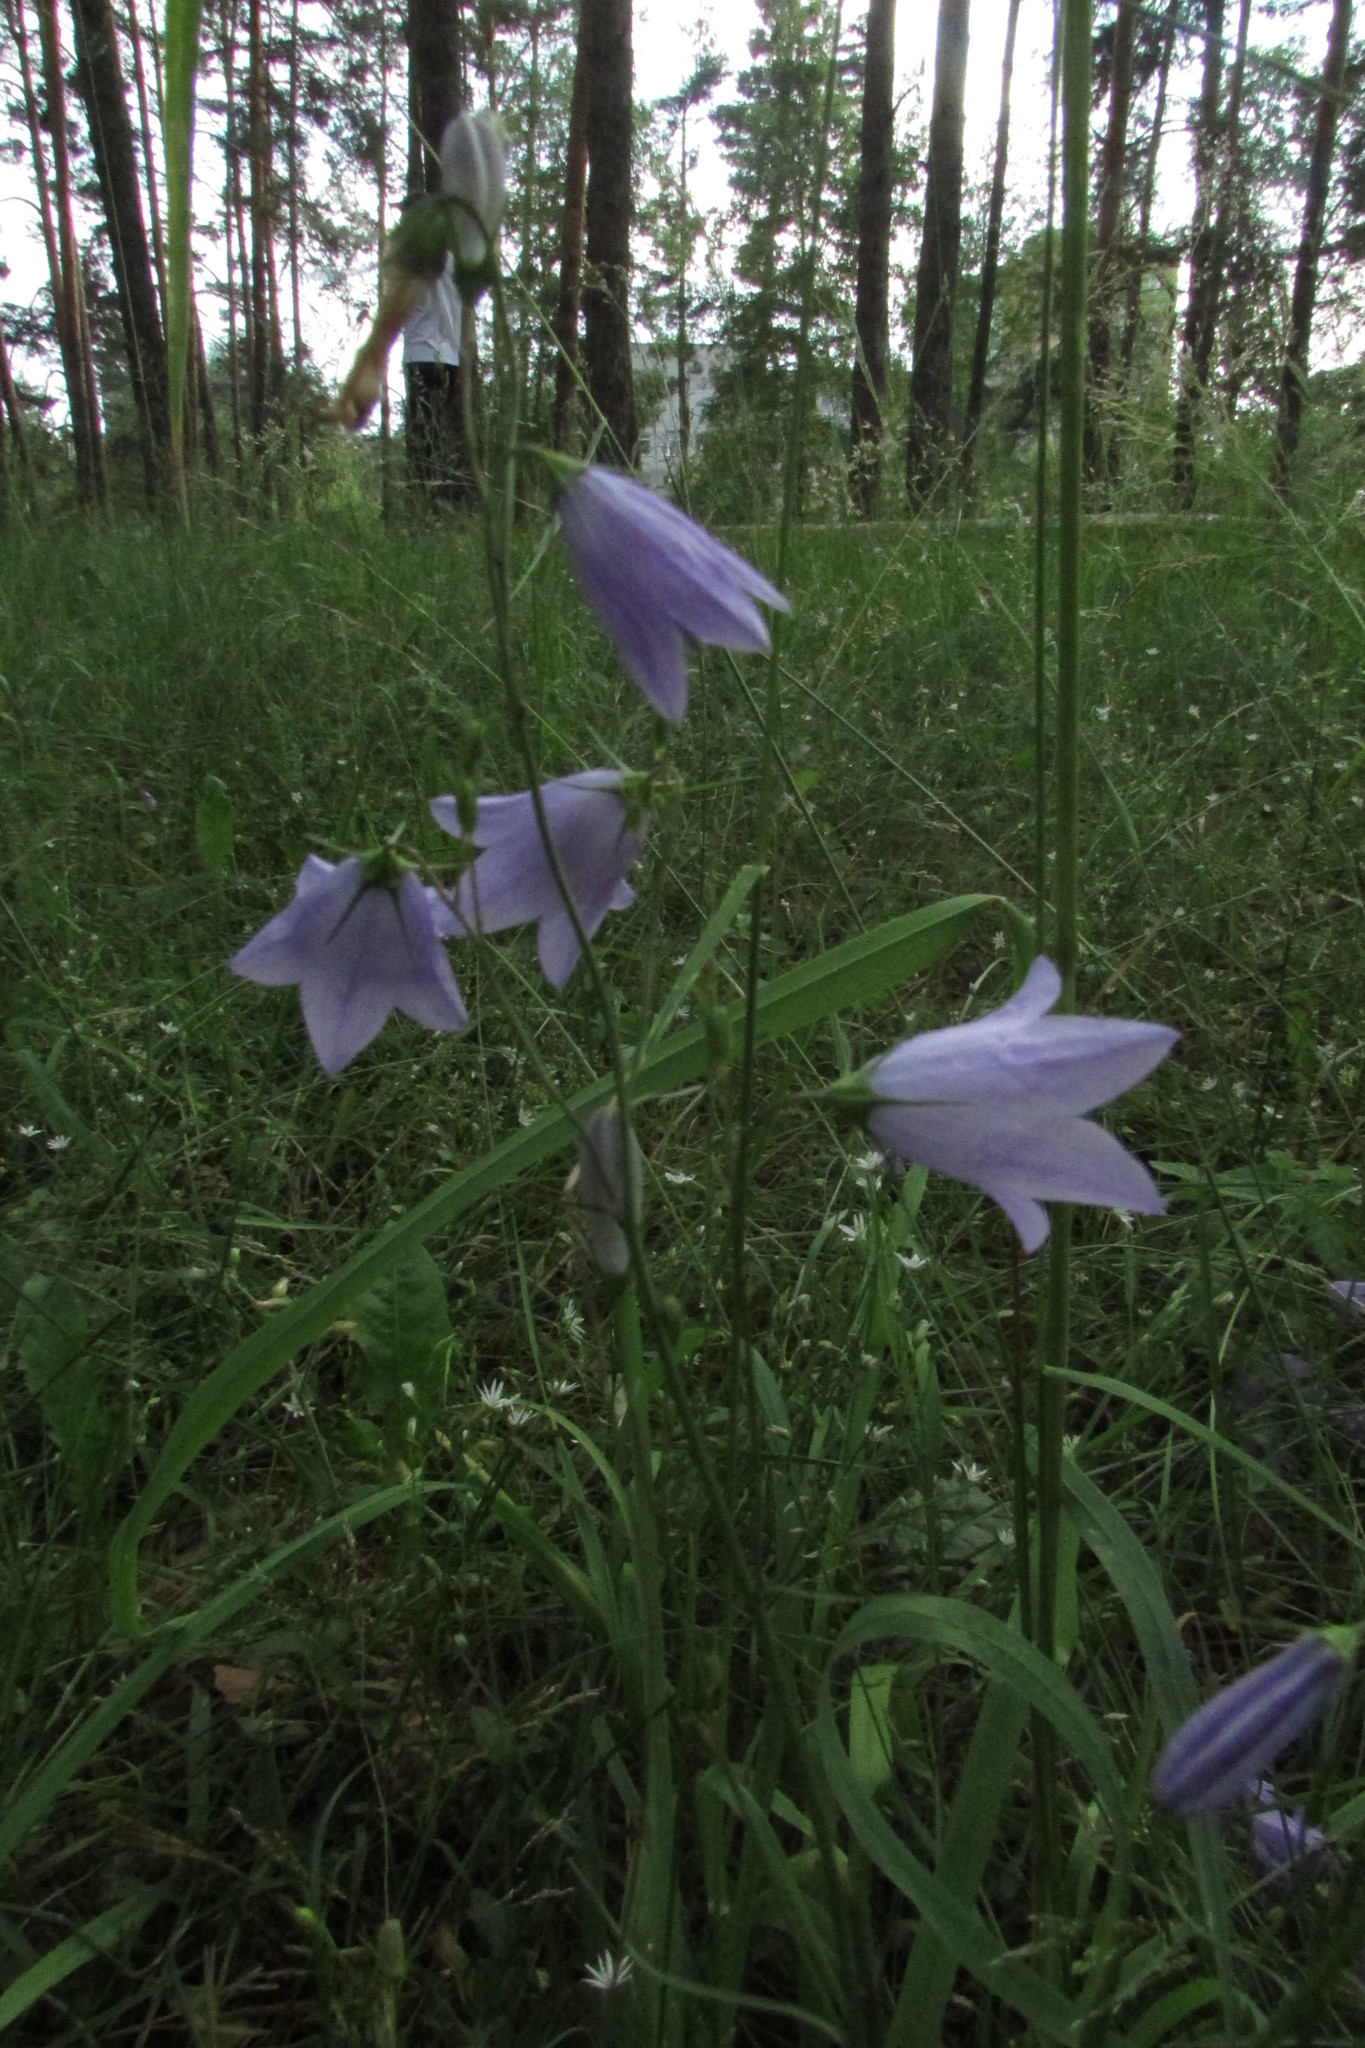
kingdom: Plantae
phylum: Tracheophyta
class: Magnoliopsida
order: Asterales
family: Campanulaceae
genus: Campanula
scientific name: Campanula rotundifolia
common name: Harebell
